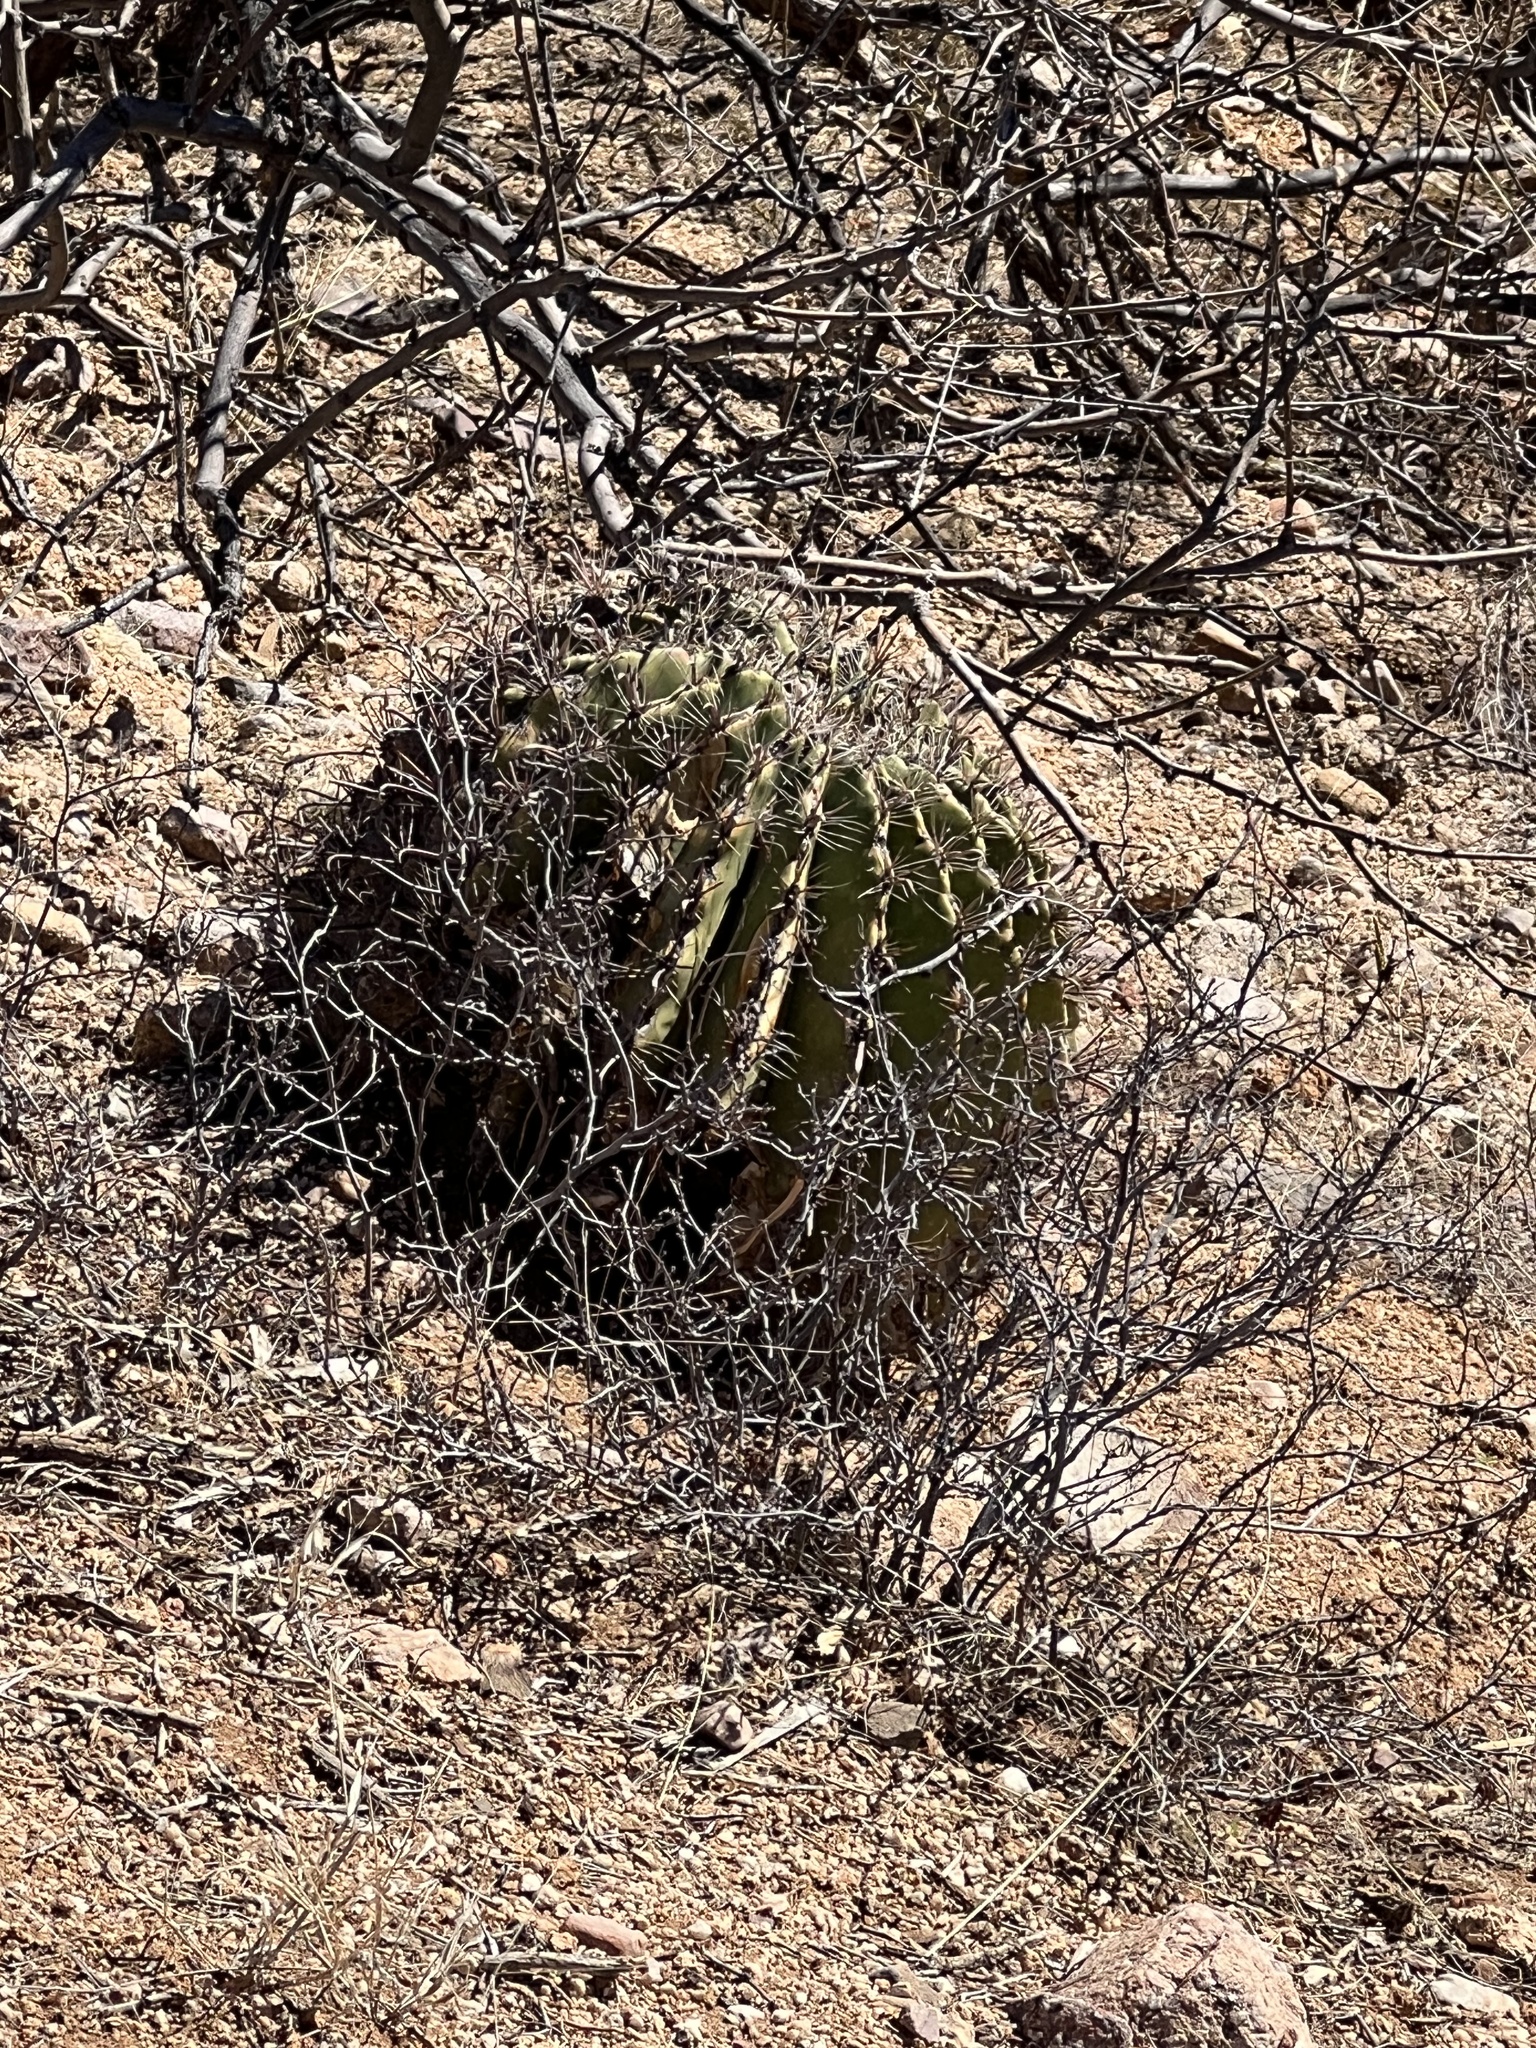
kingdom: Plantae
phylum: Tracheophyta
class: Magnoliopsida
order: Caryophyllales
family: Cactaceae
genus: Ferocactus
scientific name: Ferocactus wislizeni
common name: Candy barrel cactus
